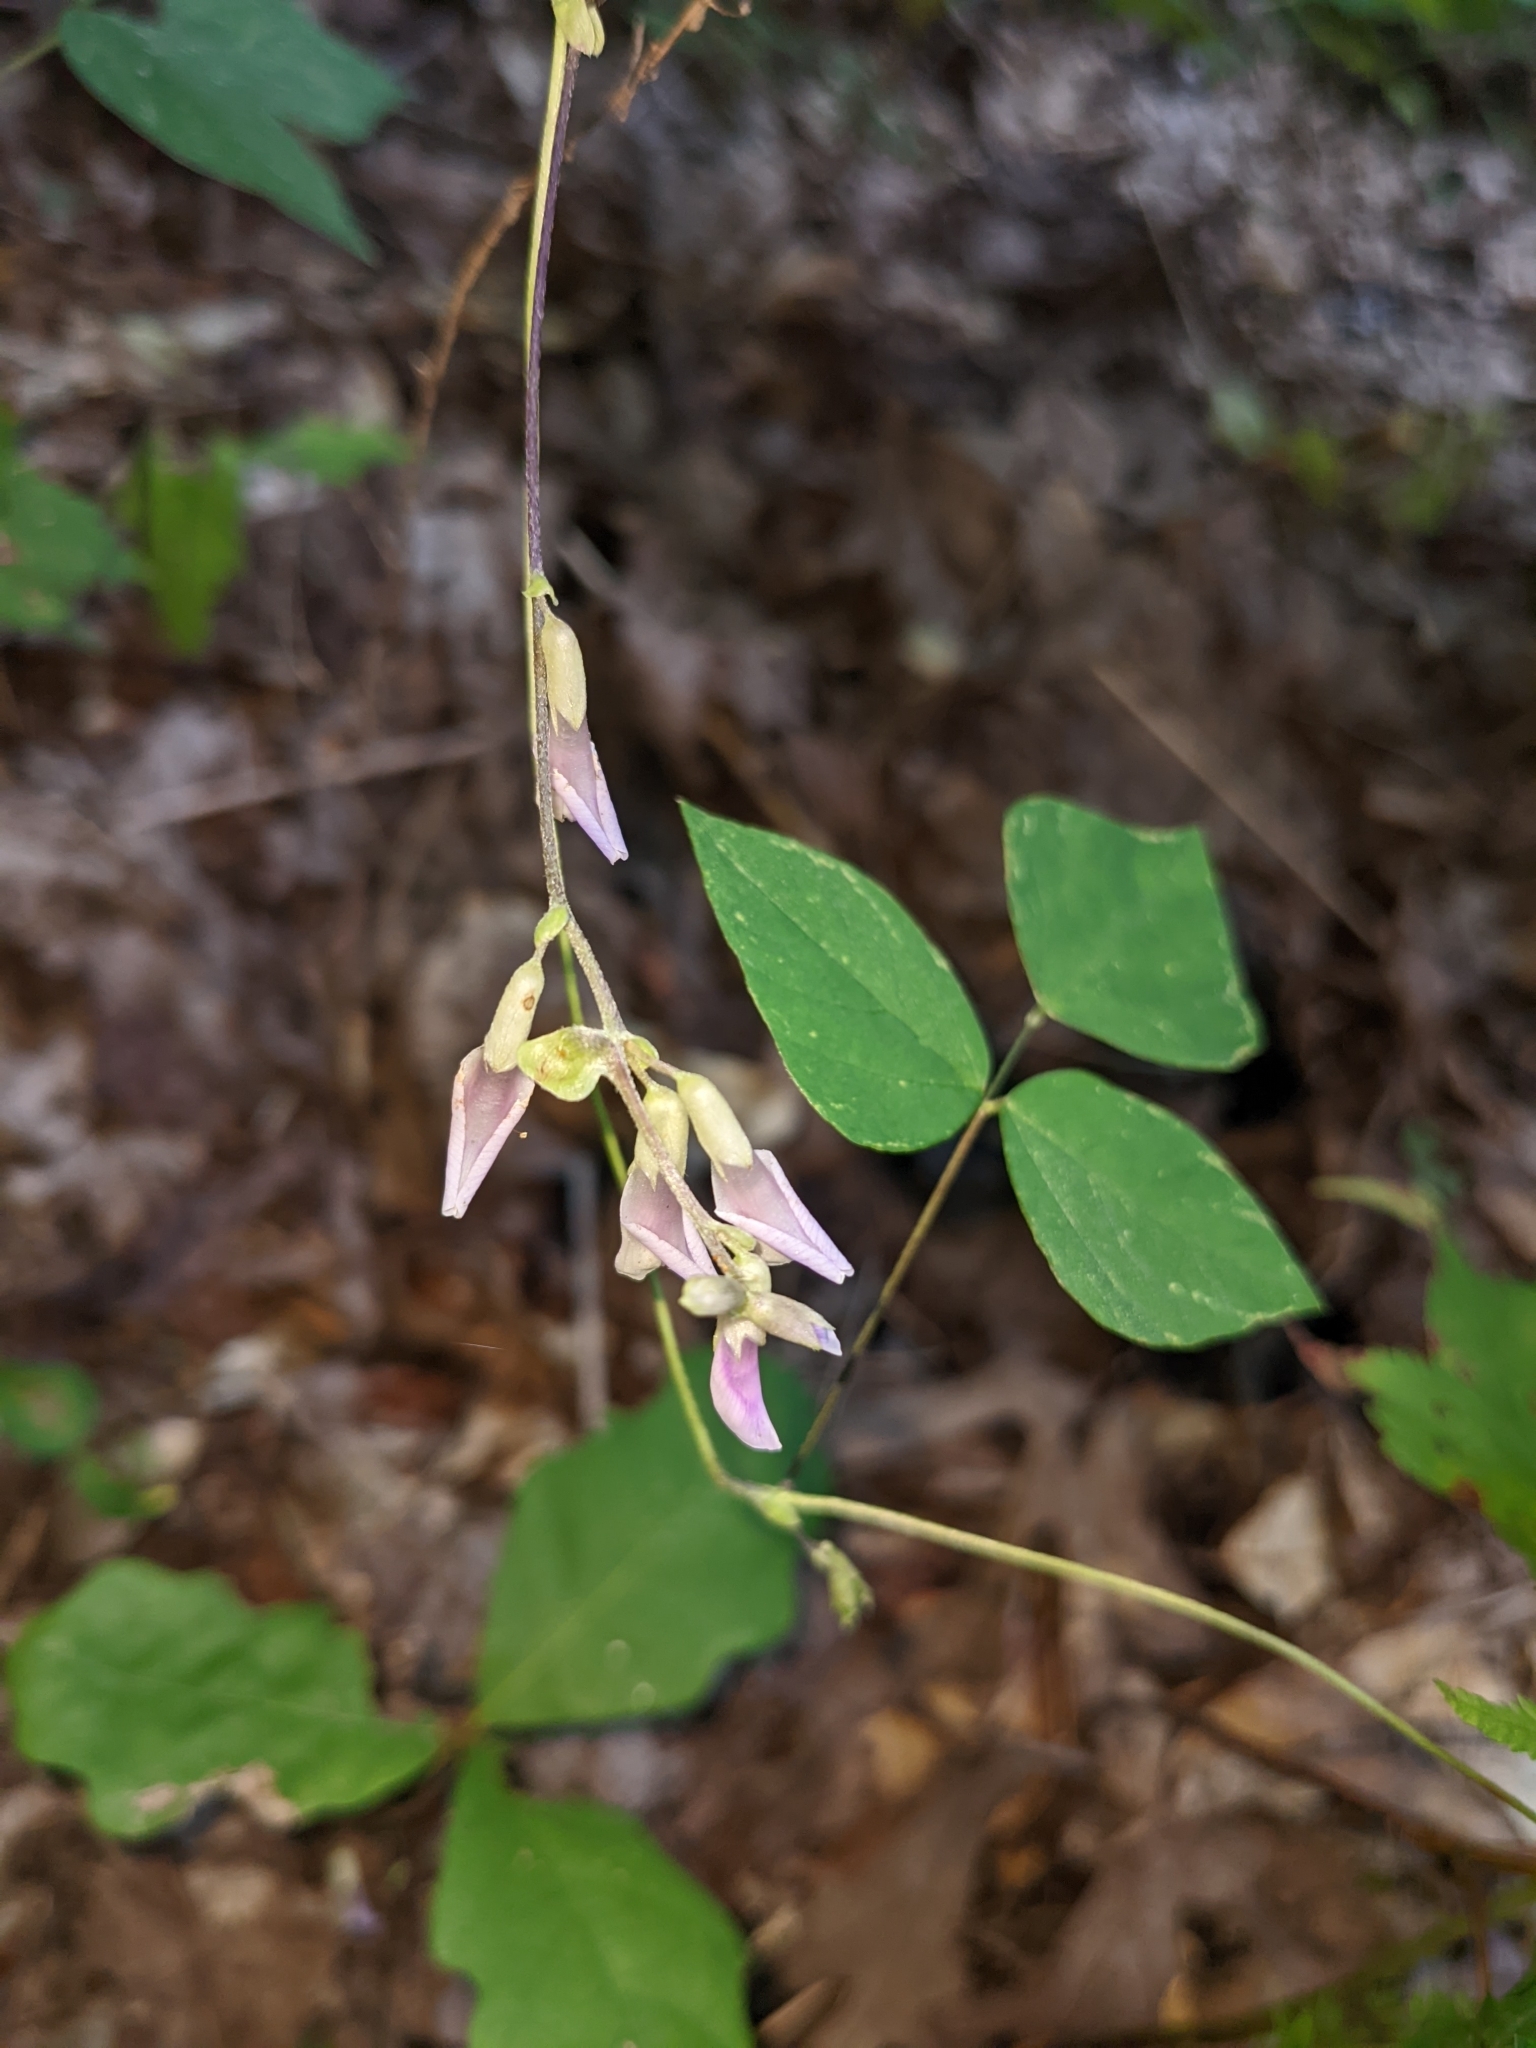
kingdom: Plantae
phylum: Tracheophyta
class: Magnoliopsida
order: Fabales
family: Fabaceae
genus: Amphicarpaea
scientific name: Amphicarpaea bracteata
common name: American hog peanut
